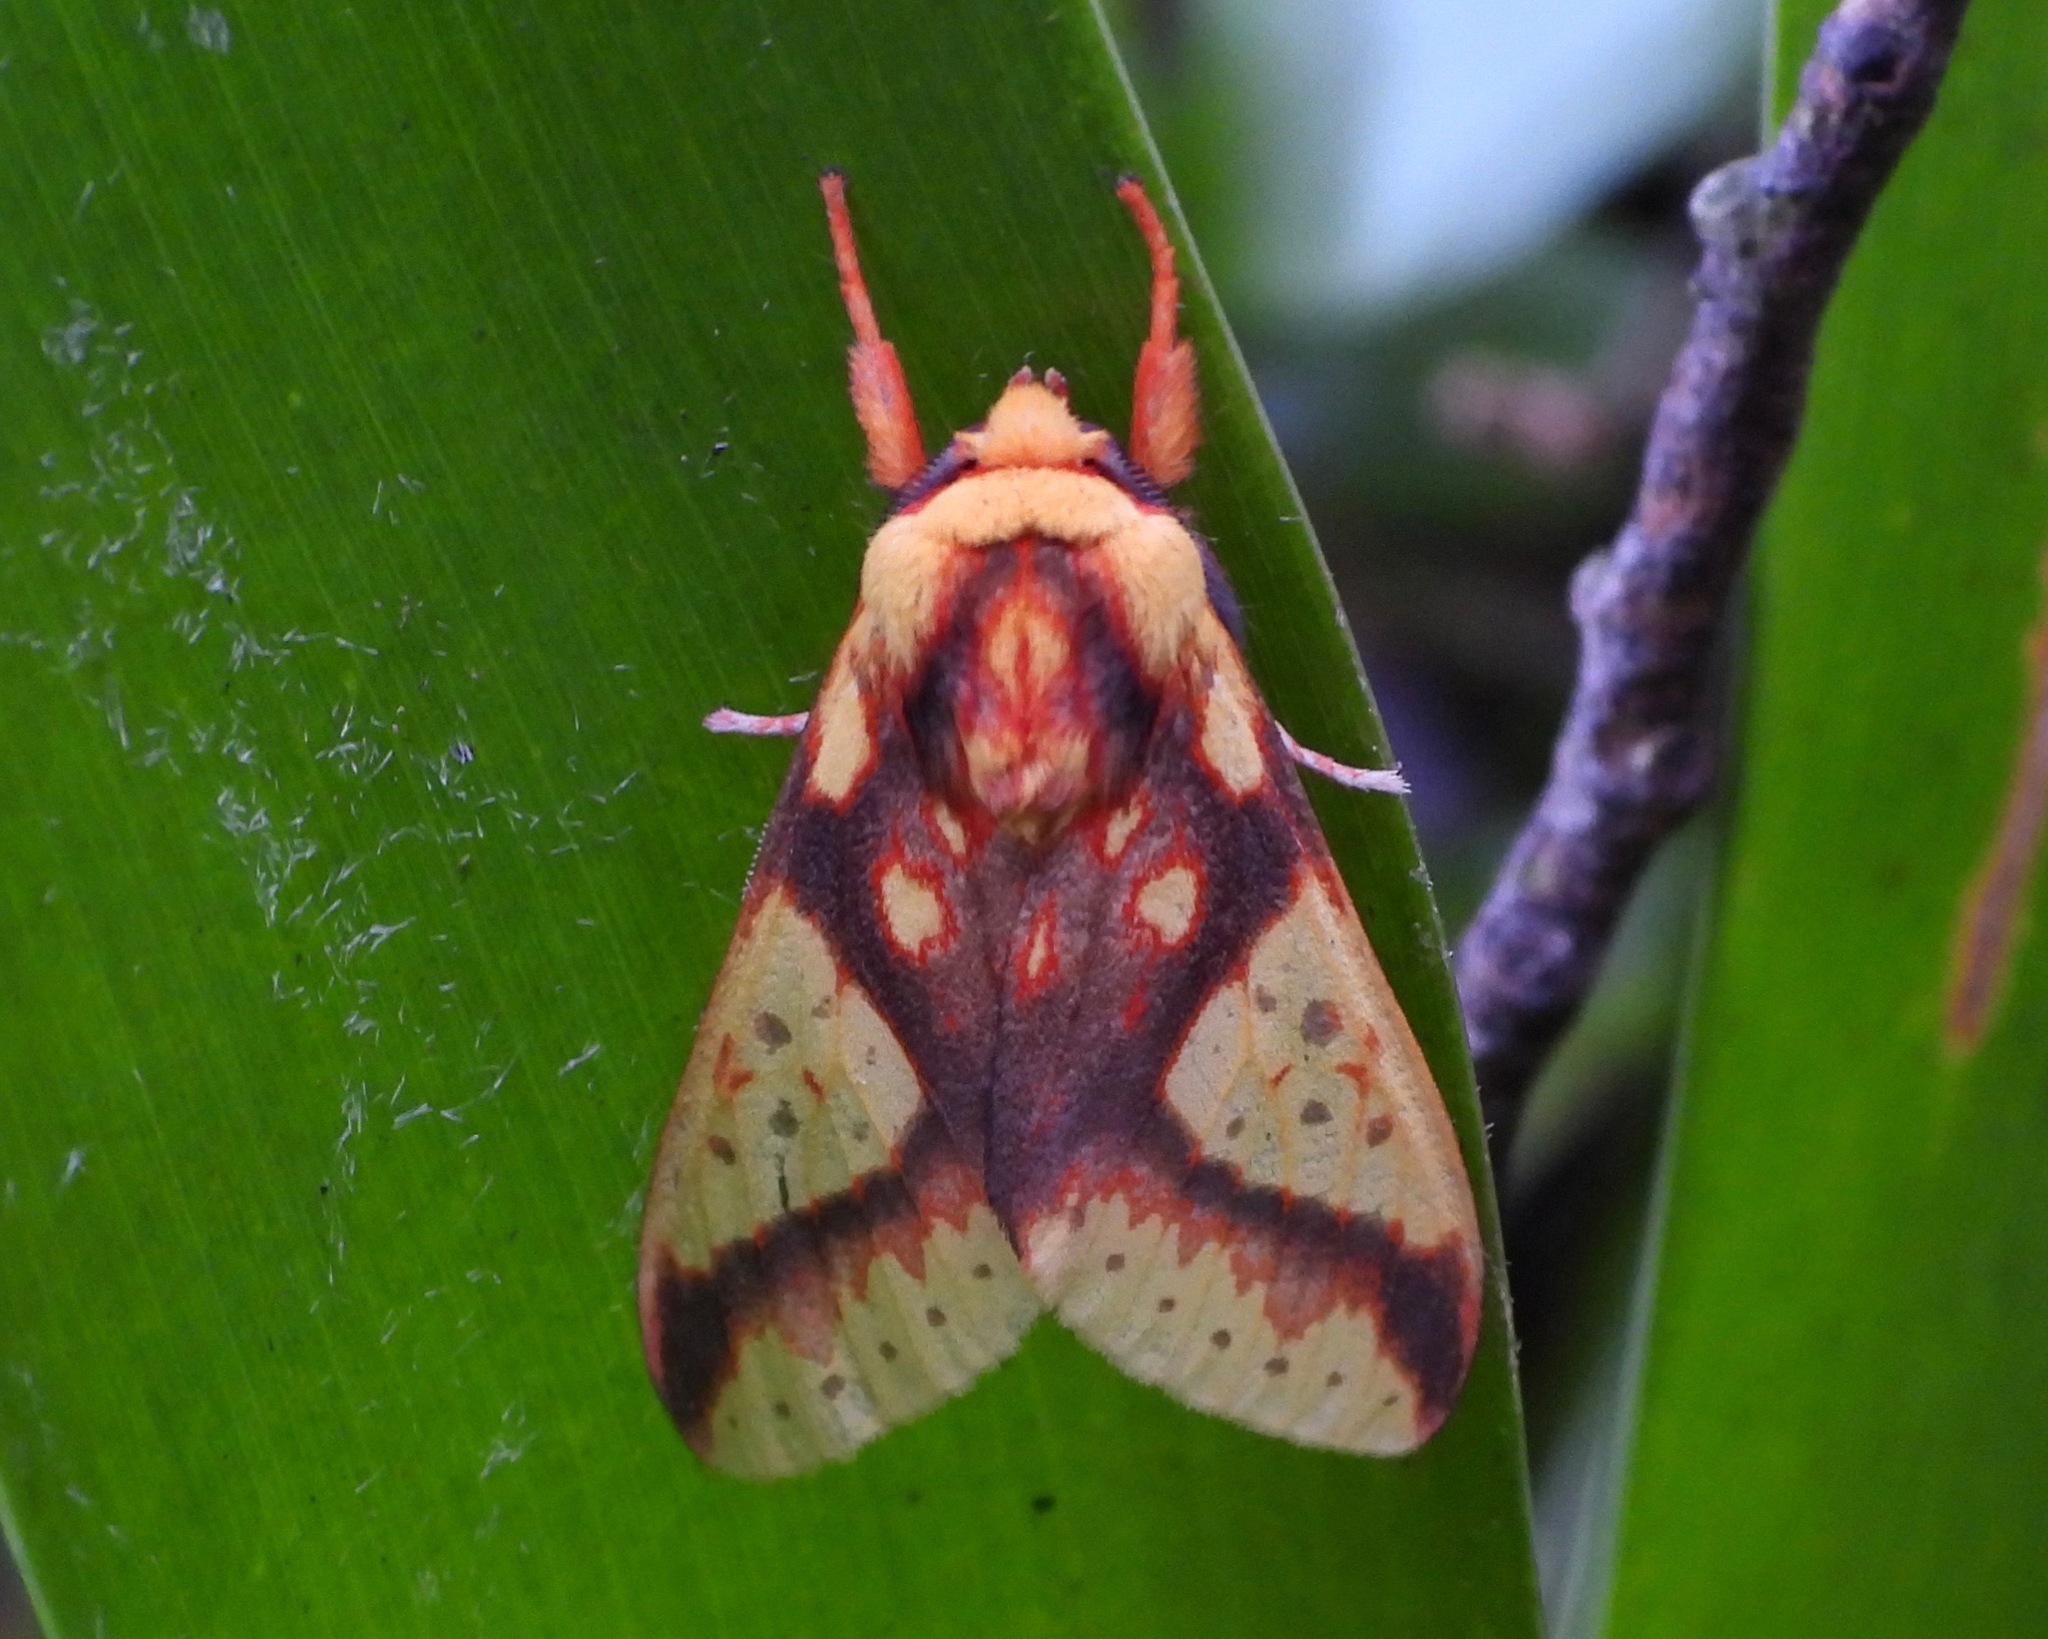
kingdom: Animalia
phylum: Arthropoda
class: Insecta
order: Lepidoptera
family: Erebidae
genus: Symphlebia
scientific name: Symphlebia ipsea
